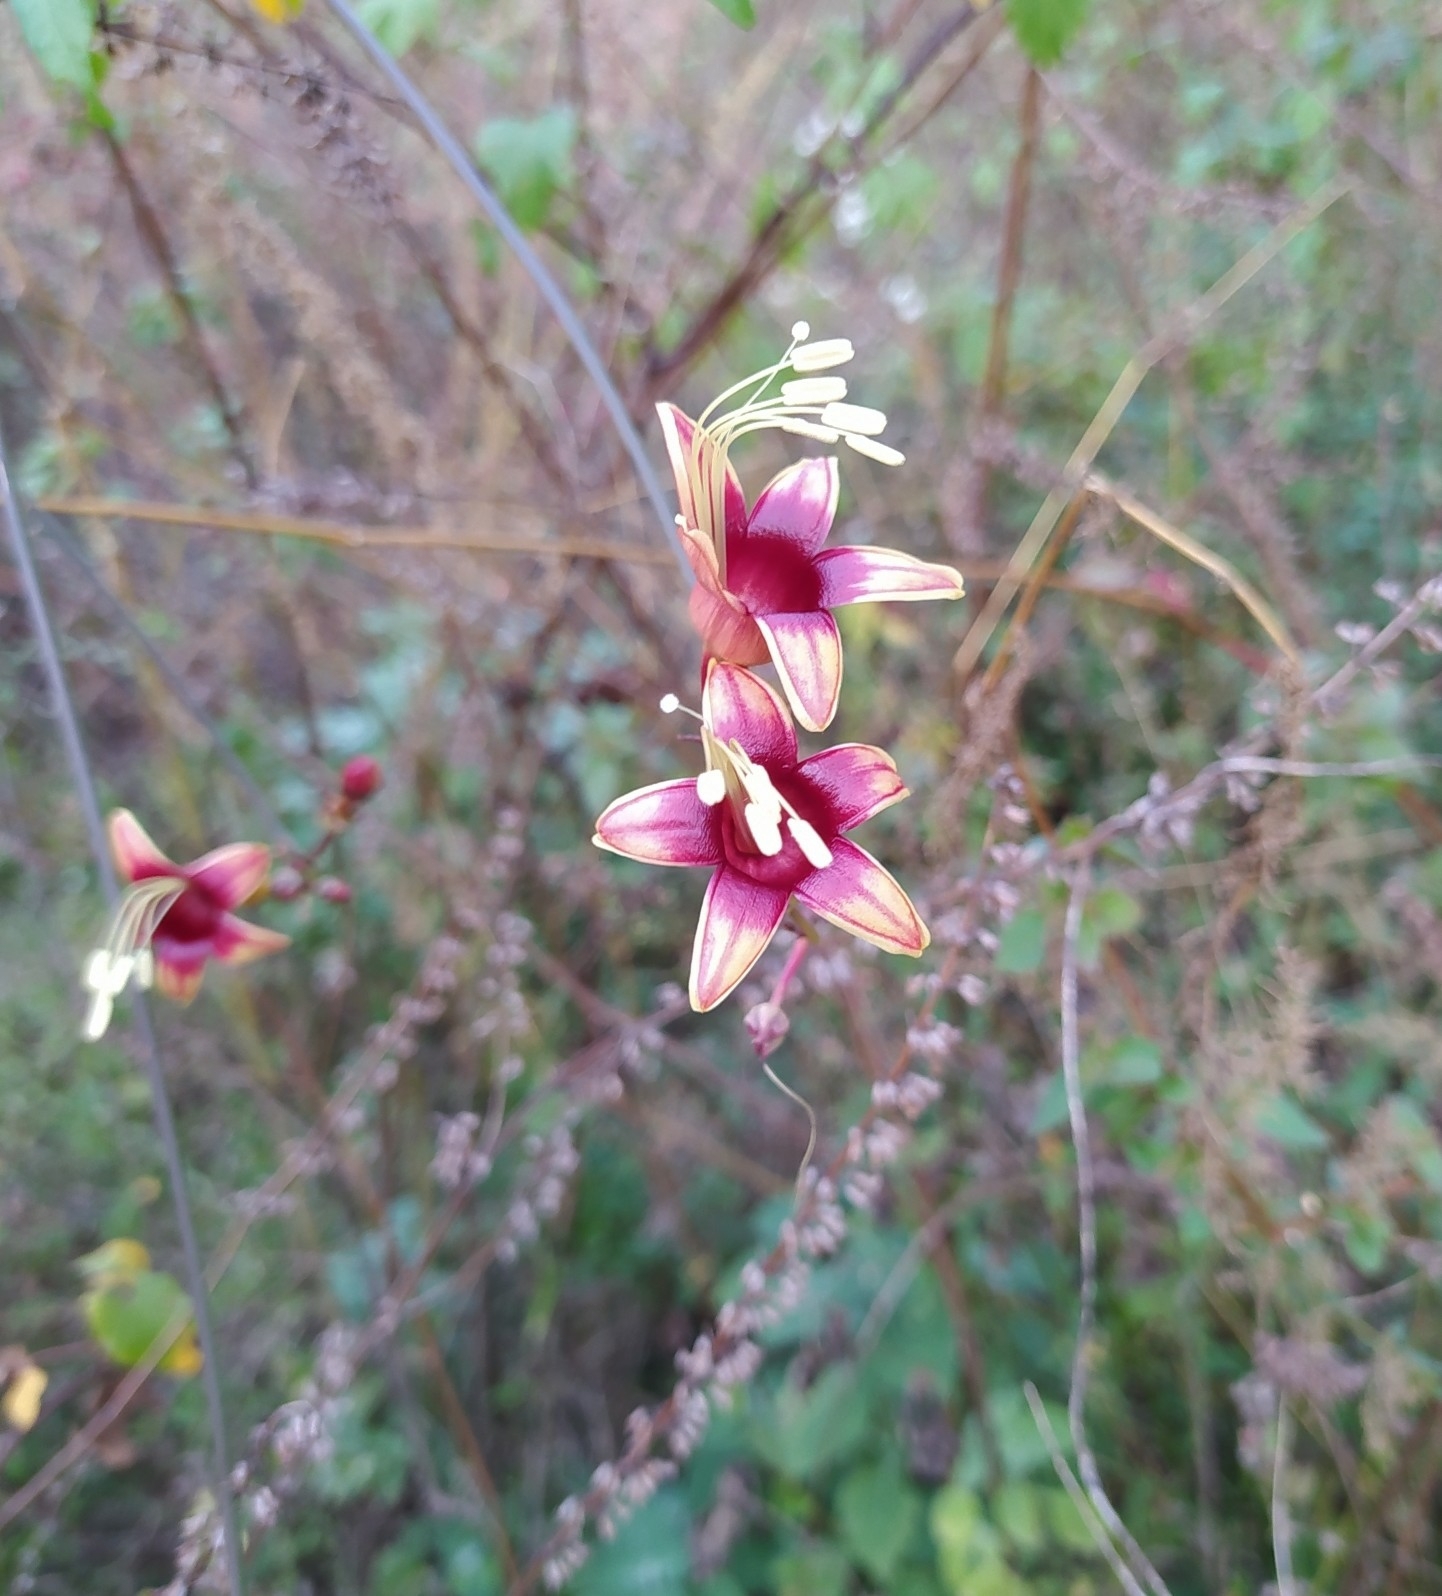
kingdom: Plantae
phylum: Tracheophyta
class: Magnoliopsida
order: Solanales
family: Convolvulaceae
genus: Ipomoea
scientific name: Ipomoea neei
